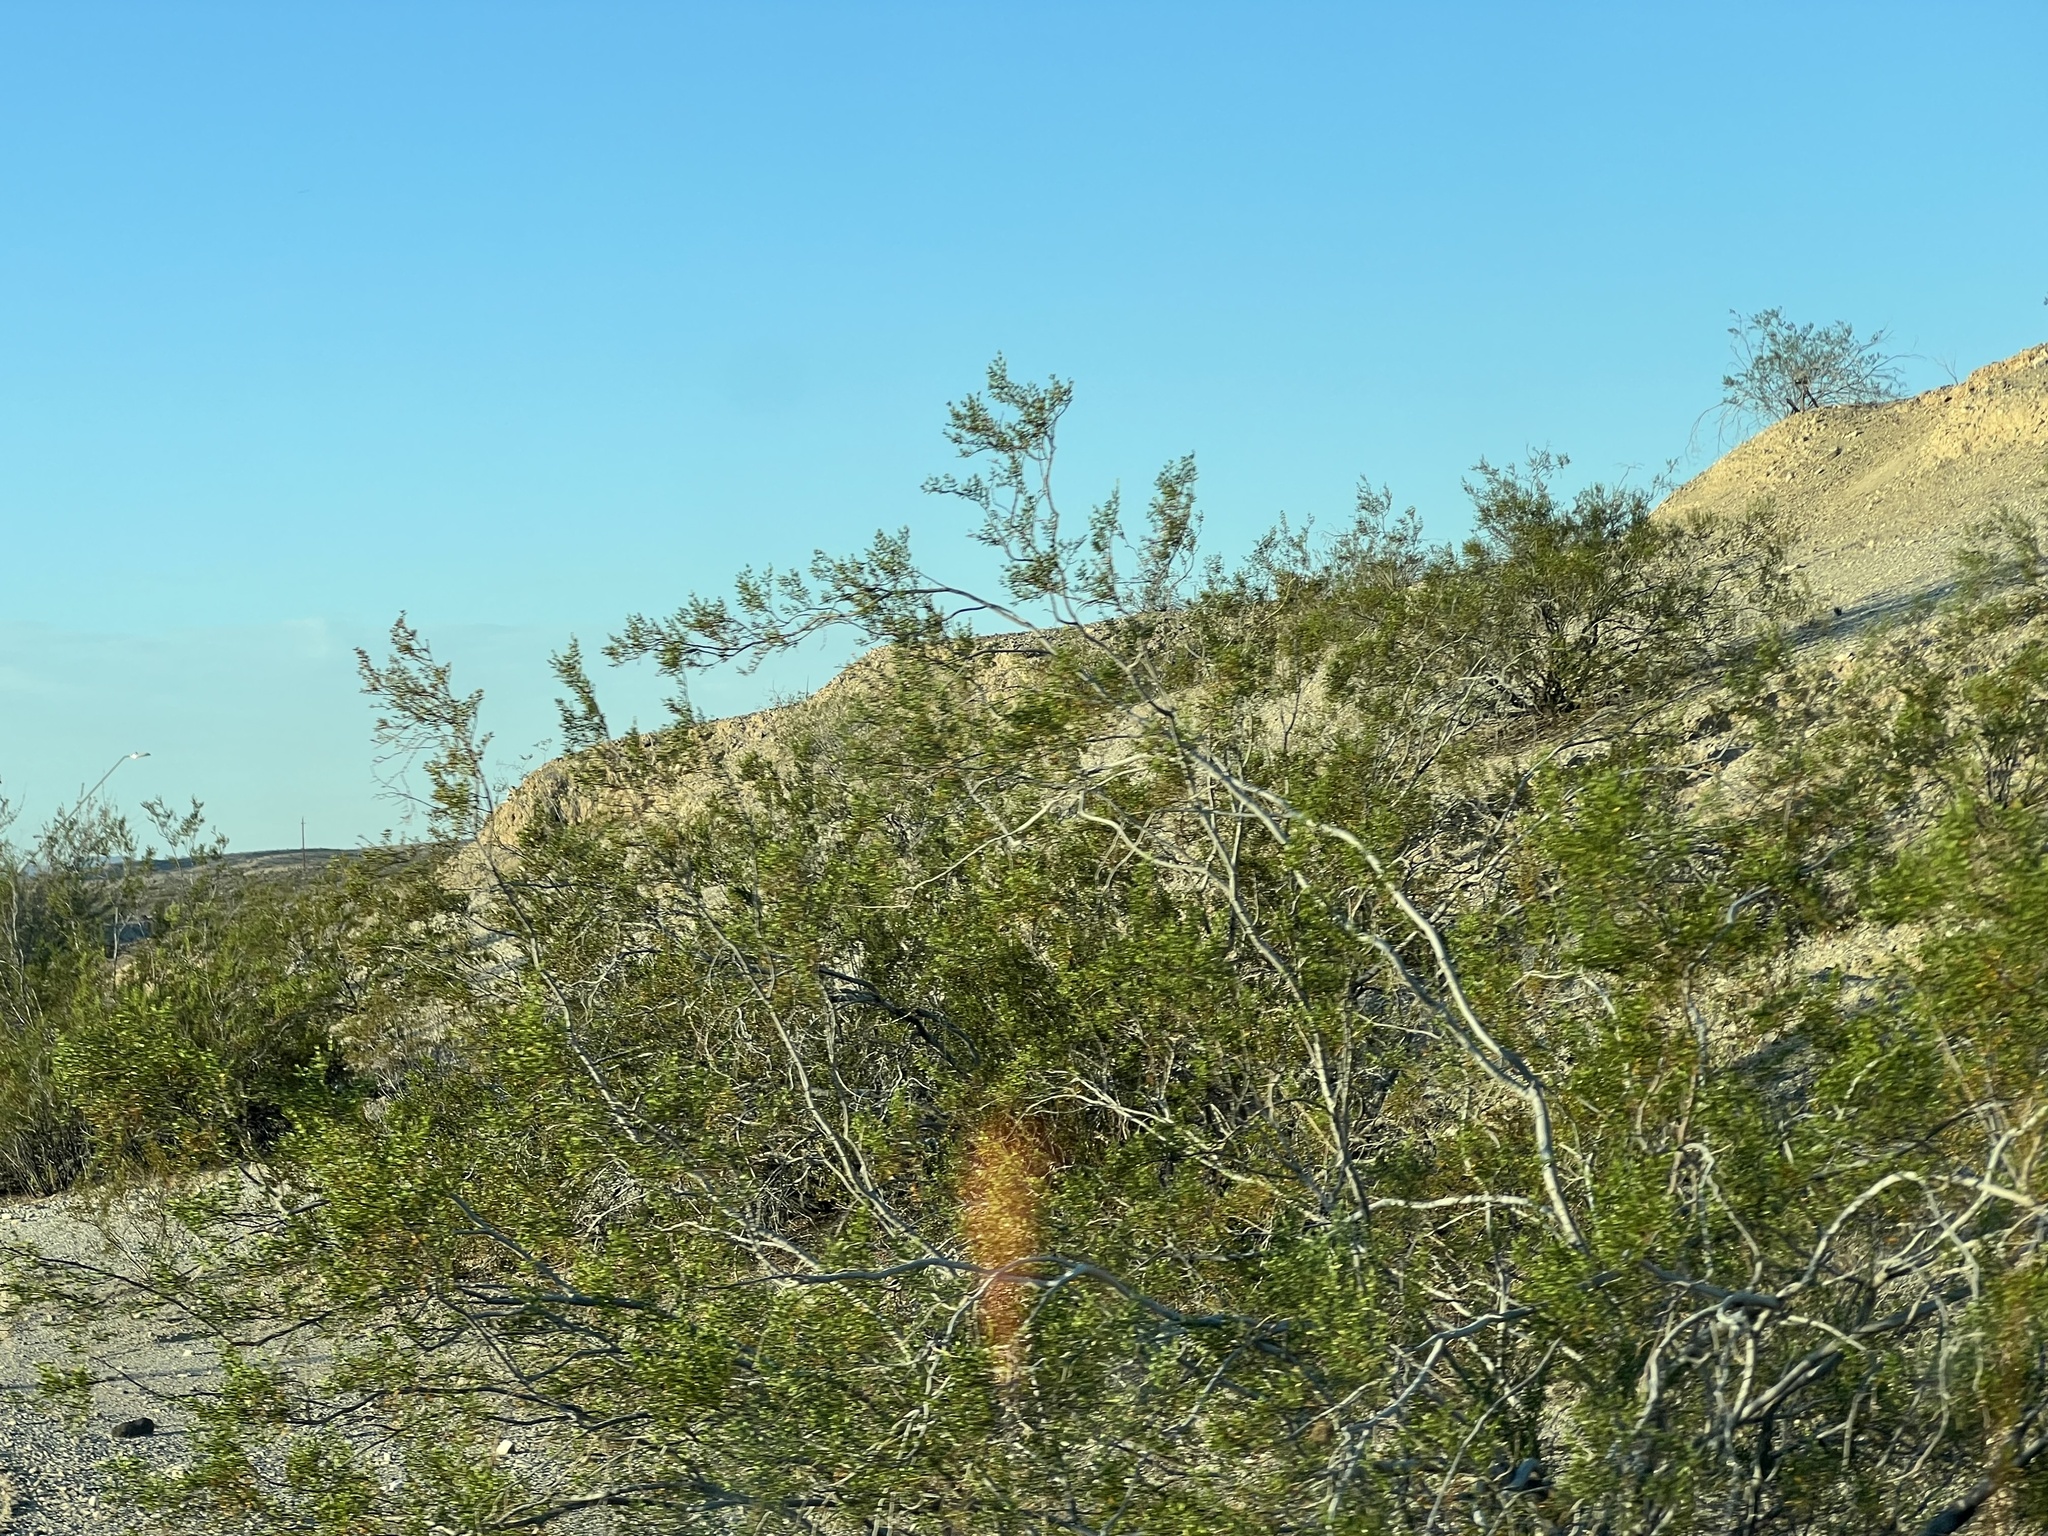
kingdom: Plantae
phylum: Tracheophyta
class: Magnoliopsida
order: Zygophyllales
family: Zygophyllaceae
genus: Larrea
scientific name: Larrea tridentata
